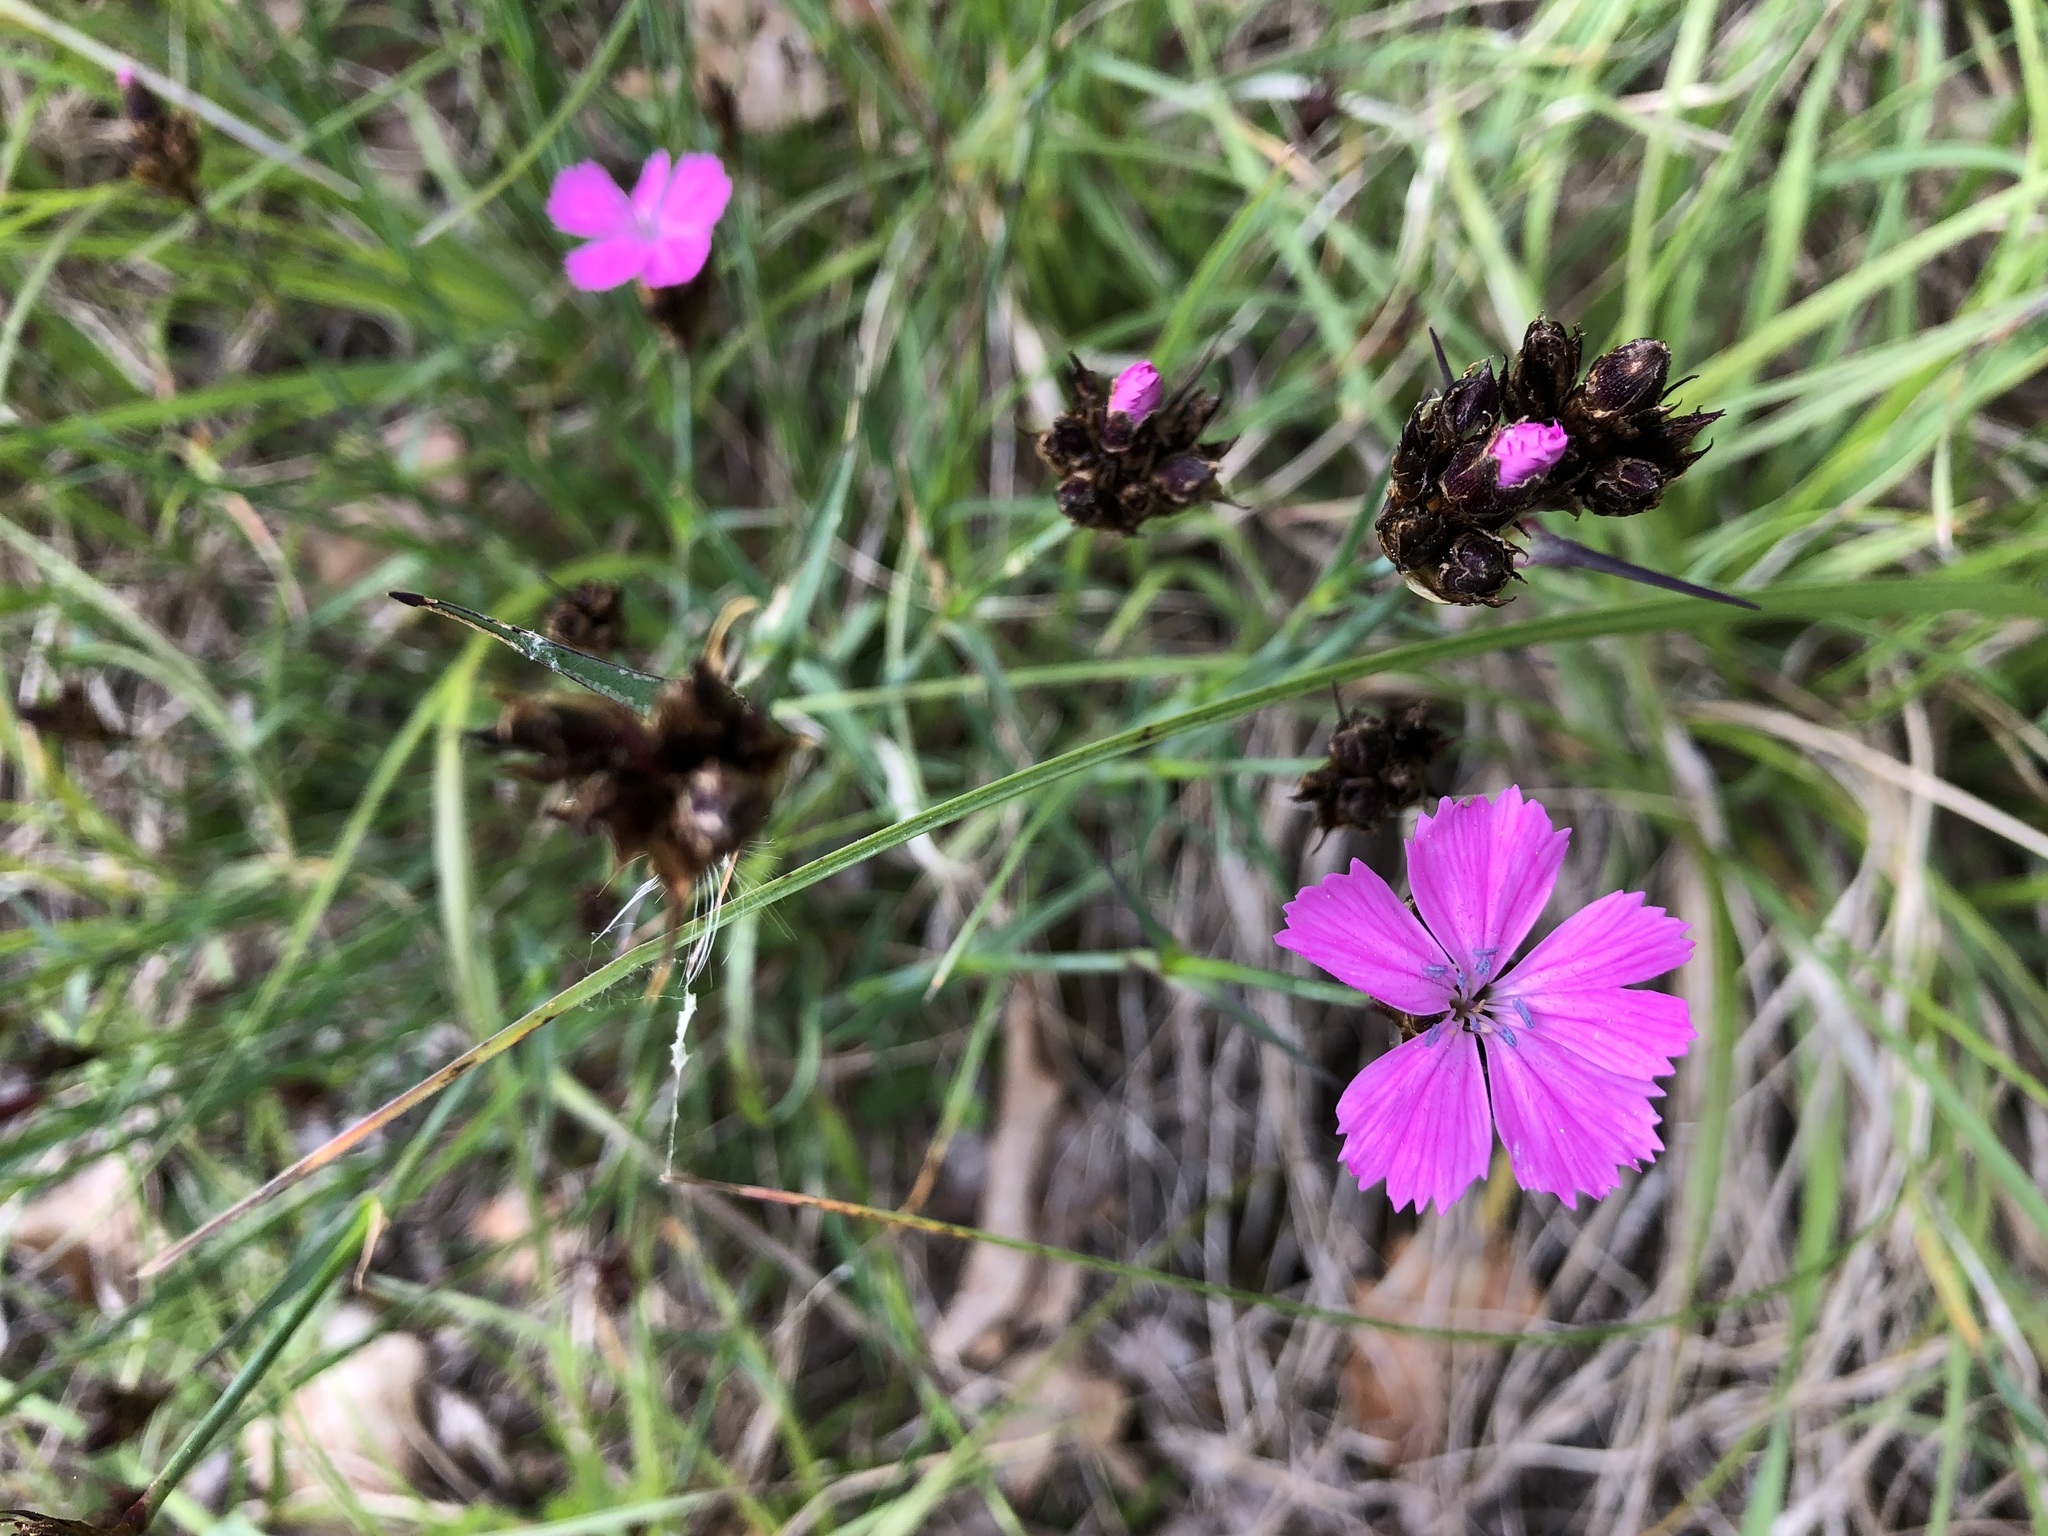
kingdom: Plantae
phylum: Tracheophyta
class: Magnoliopsida
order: Caryophyllales
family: Caryophyllaceae
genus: Dianthus
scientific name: Dianthus carthusianorum
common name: Carthusian pink
